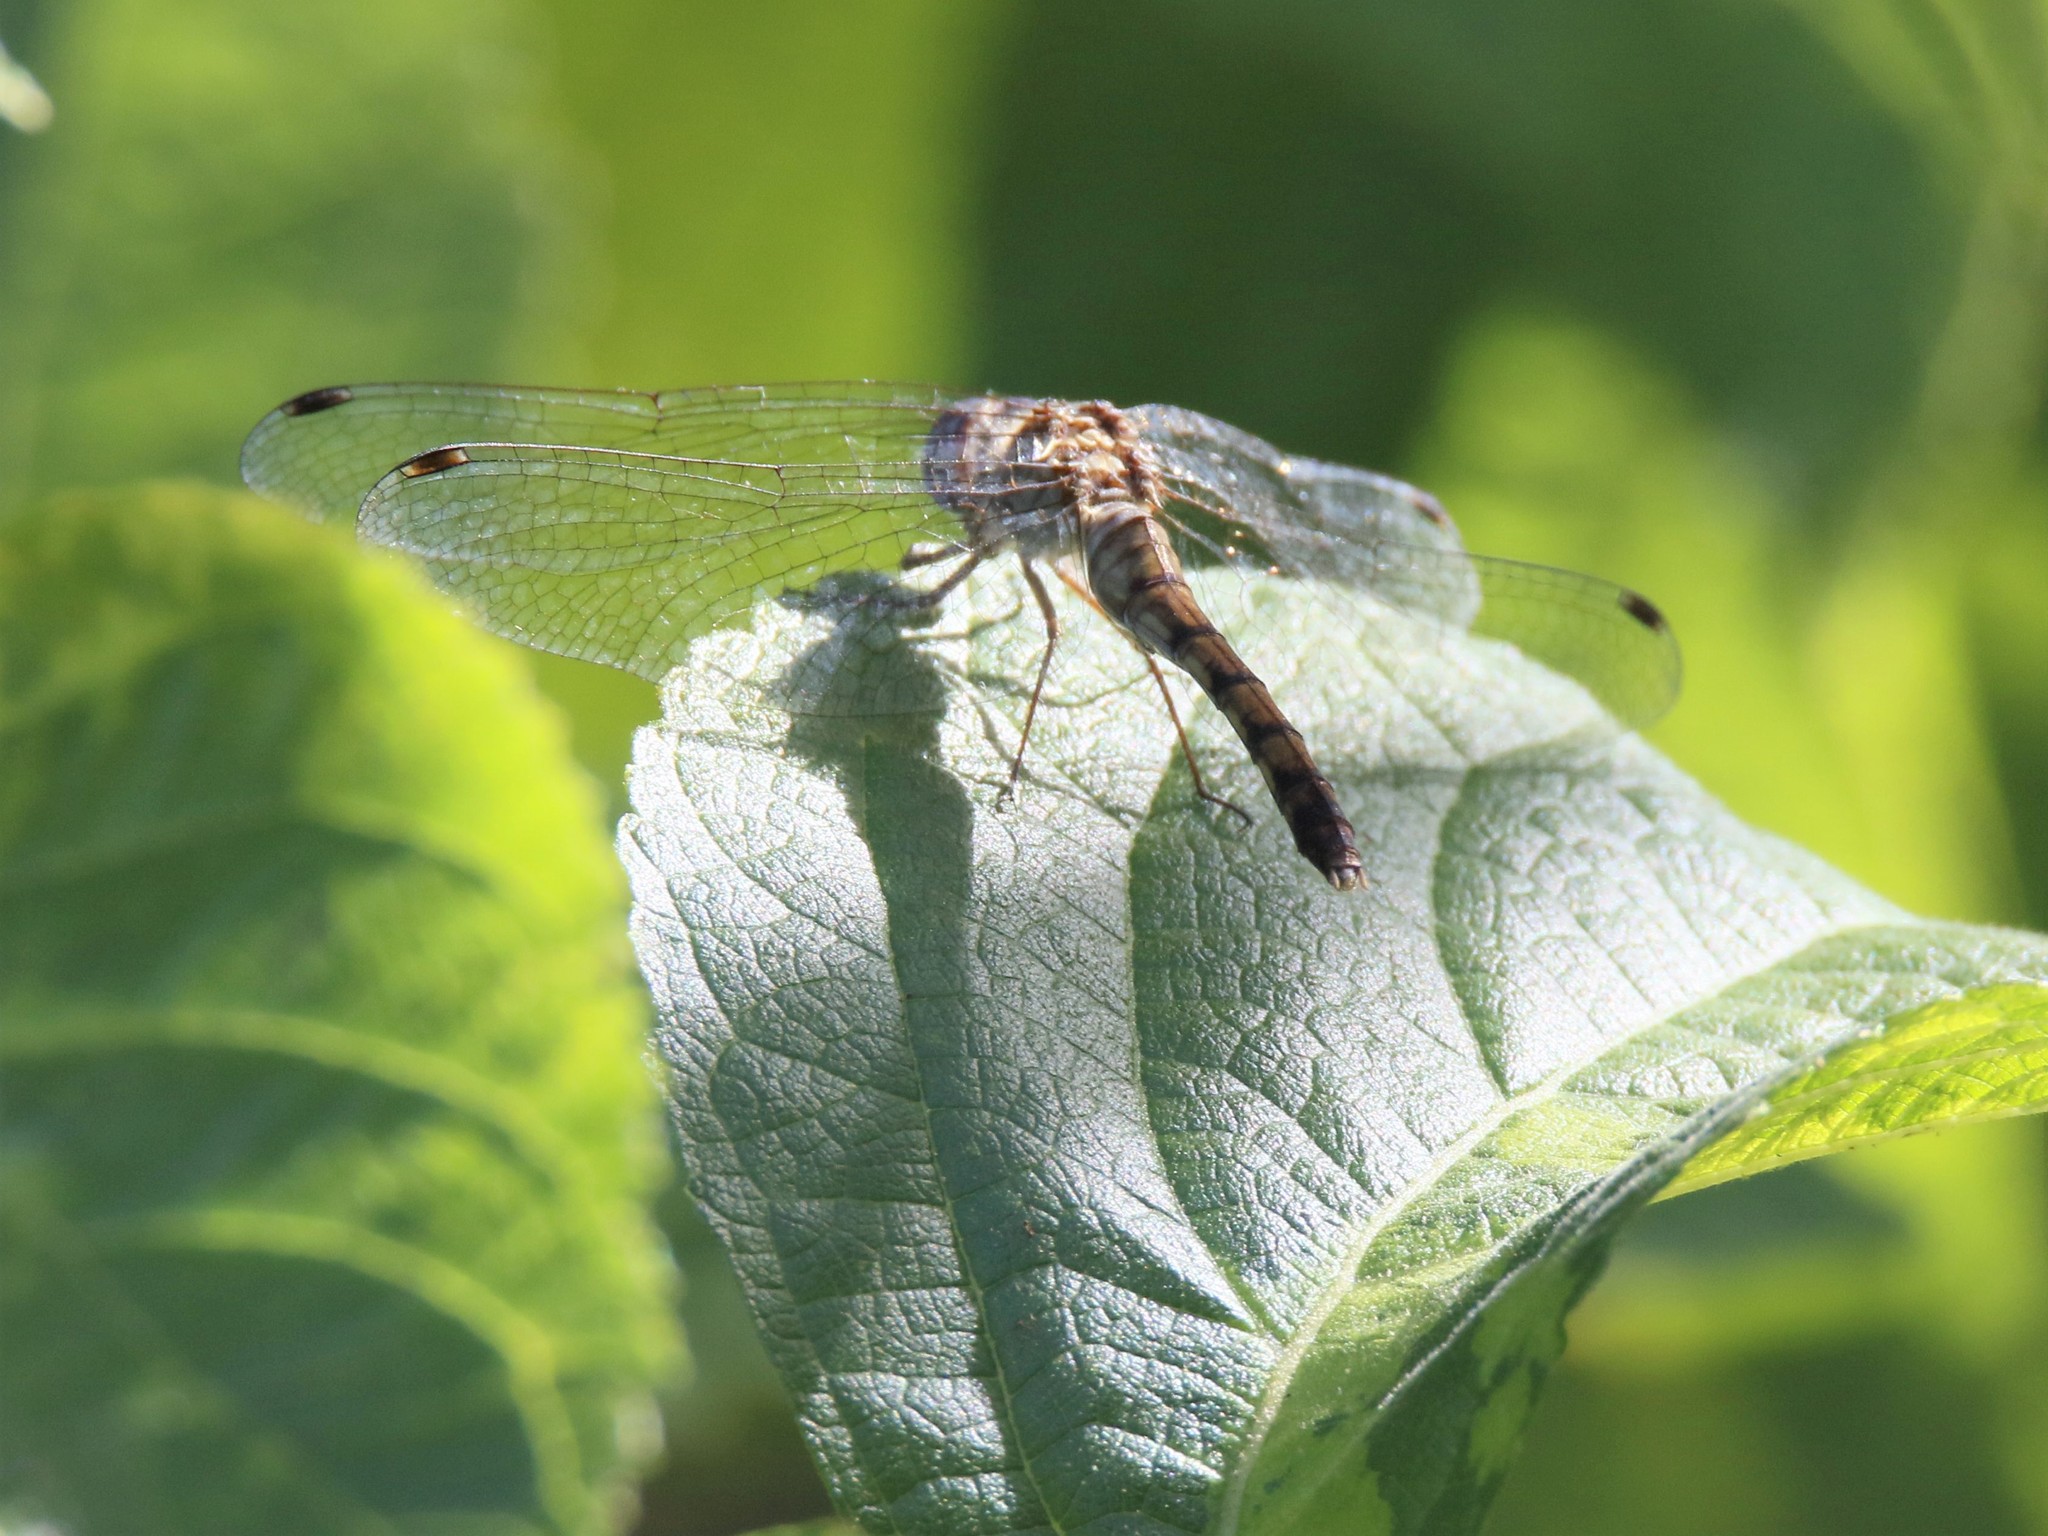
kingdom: Animalia
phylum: Arthropoda
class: Insecta
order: Odonata
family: Libellulidae
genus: Sympetrum
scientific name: Sympetrum ambiguum
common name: Blue-faced meadowhawk
